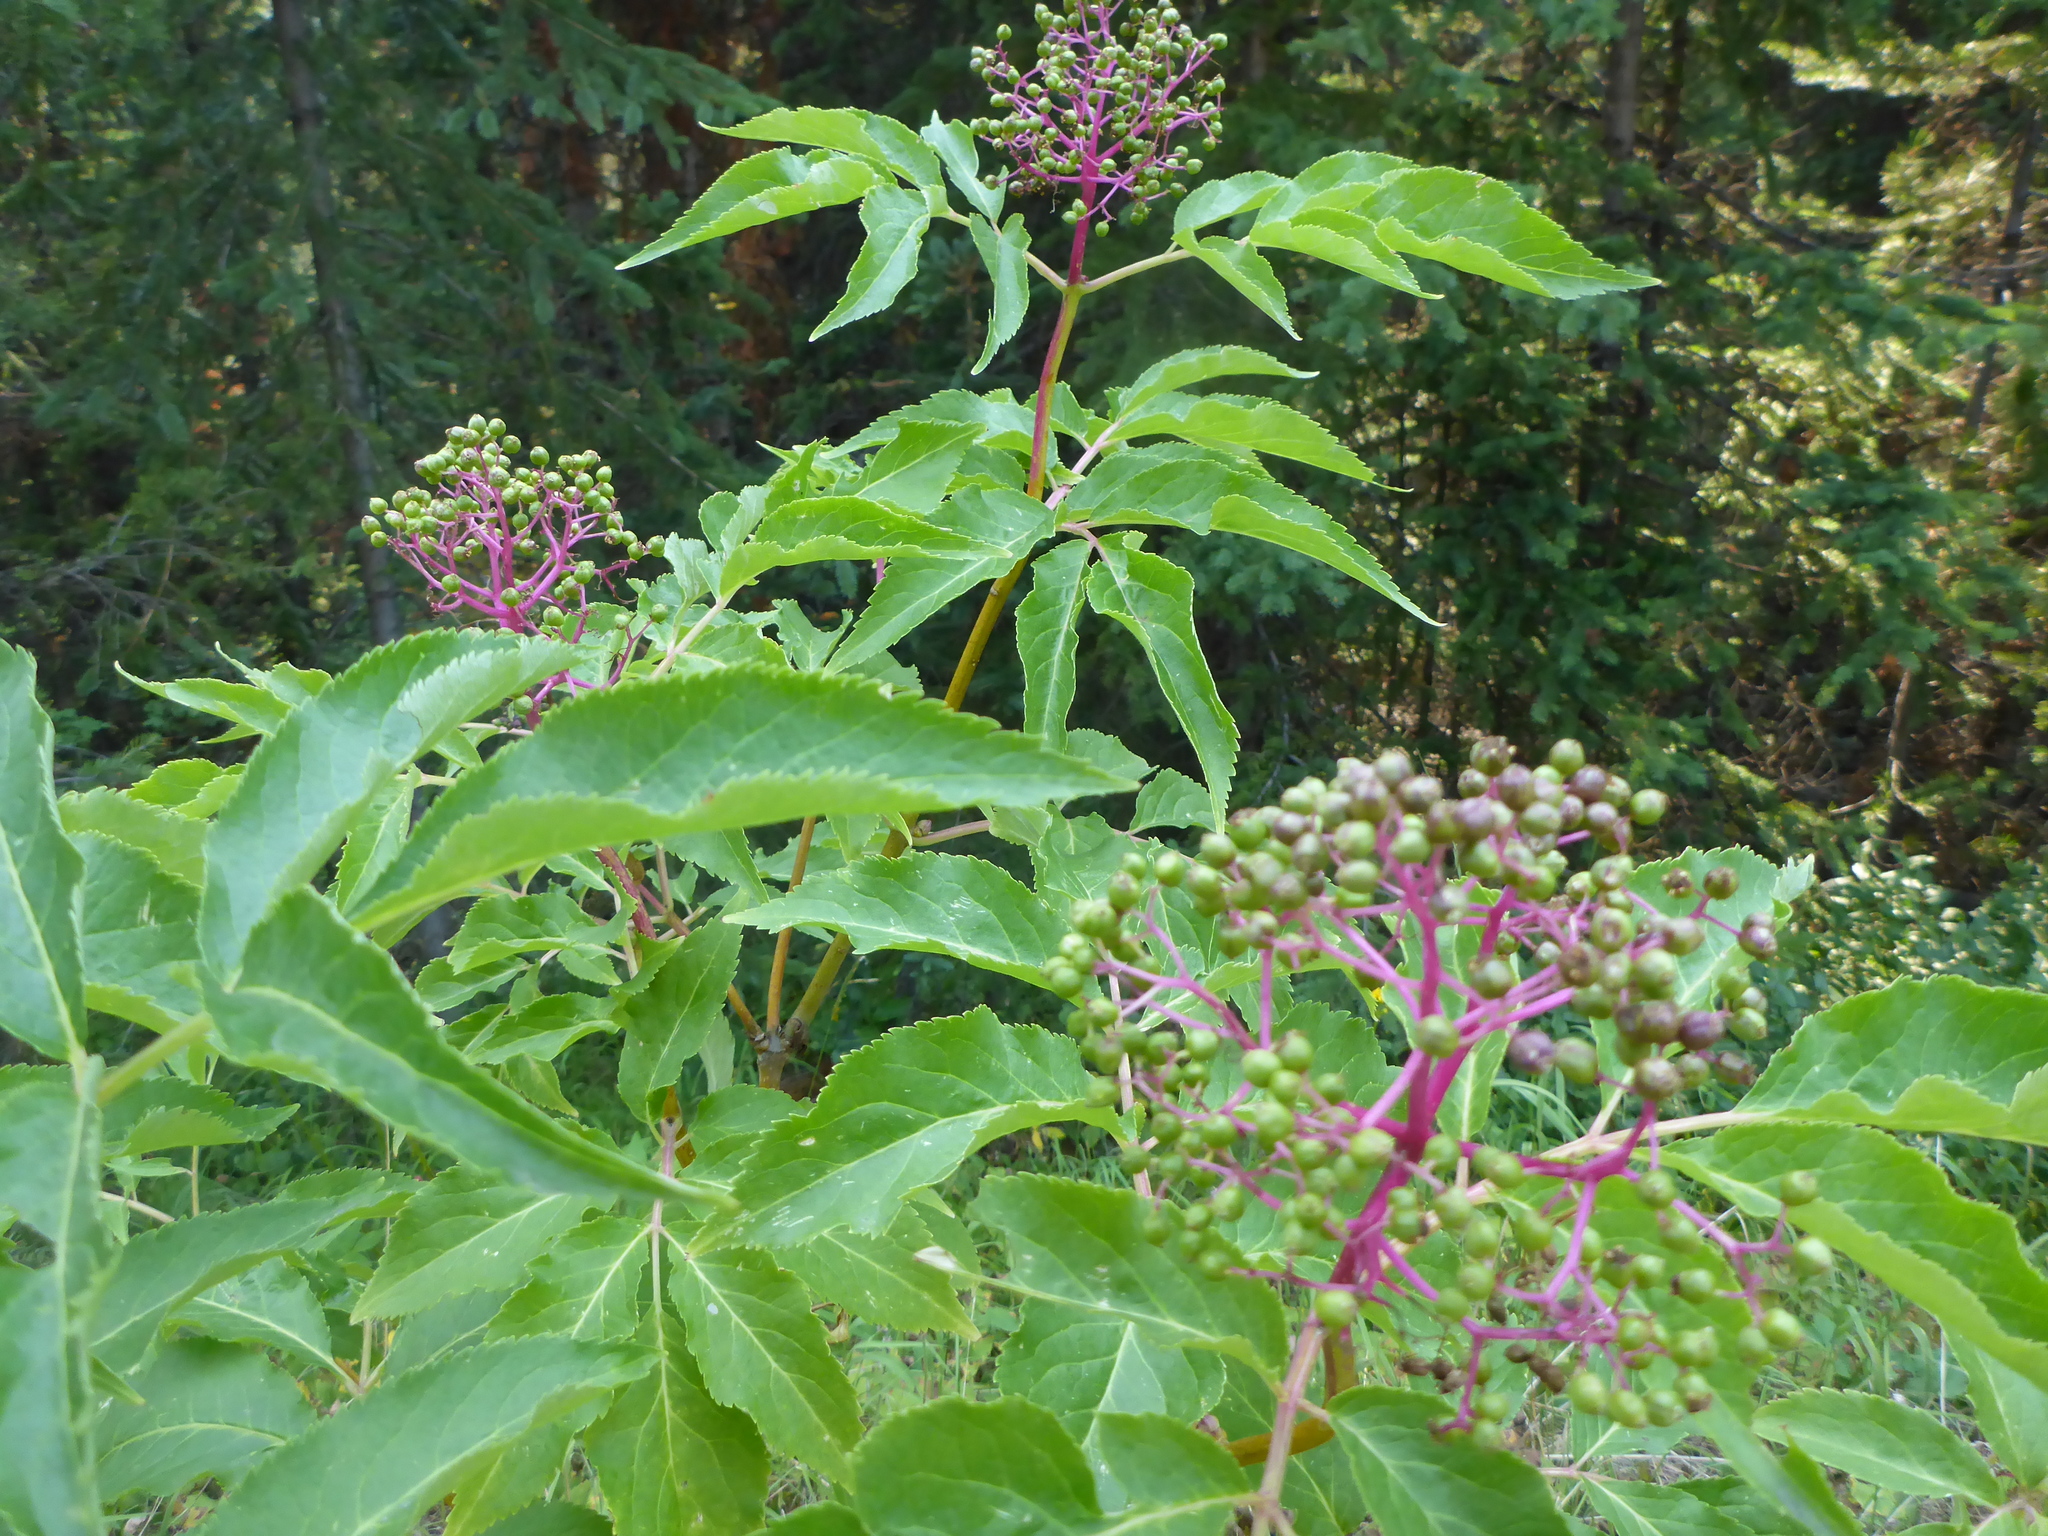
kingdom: Plantae
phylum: Tracheophyta
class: Magnoliopsida
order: Dipsacales
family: Viburnaceae
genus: Sambucus
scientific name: Sambucus racemosa
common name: Red-berried elder
